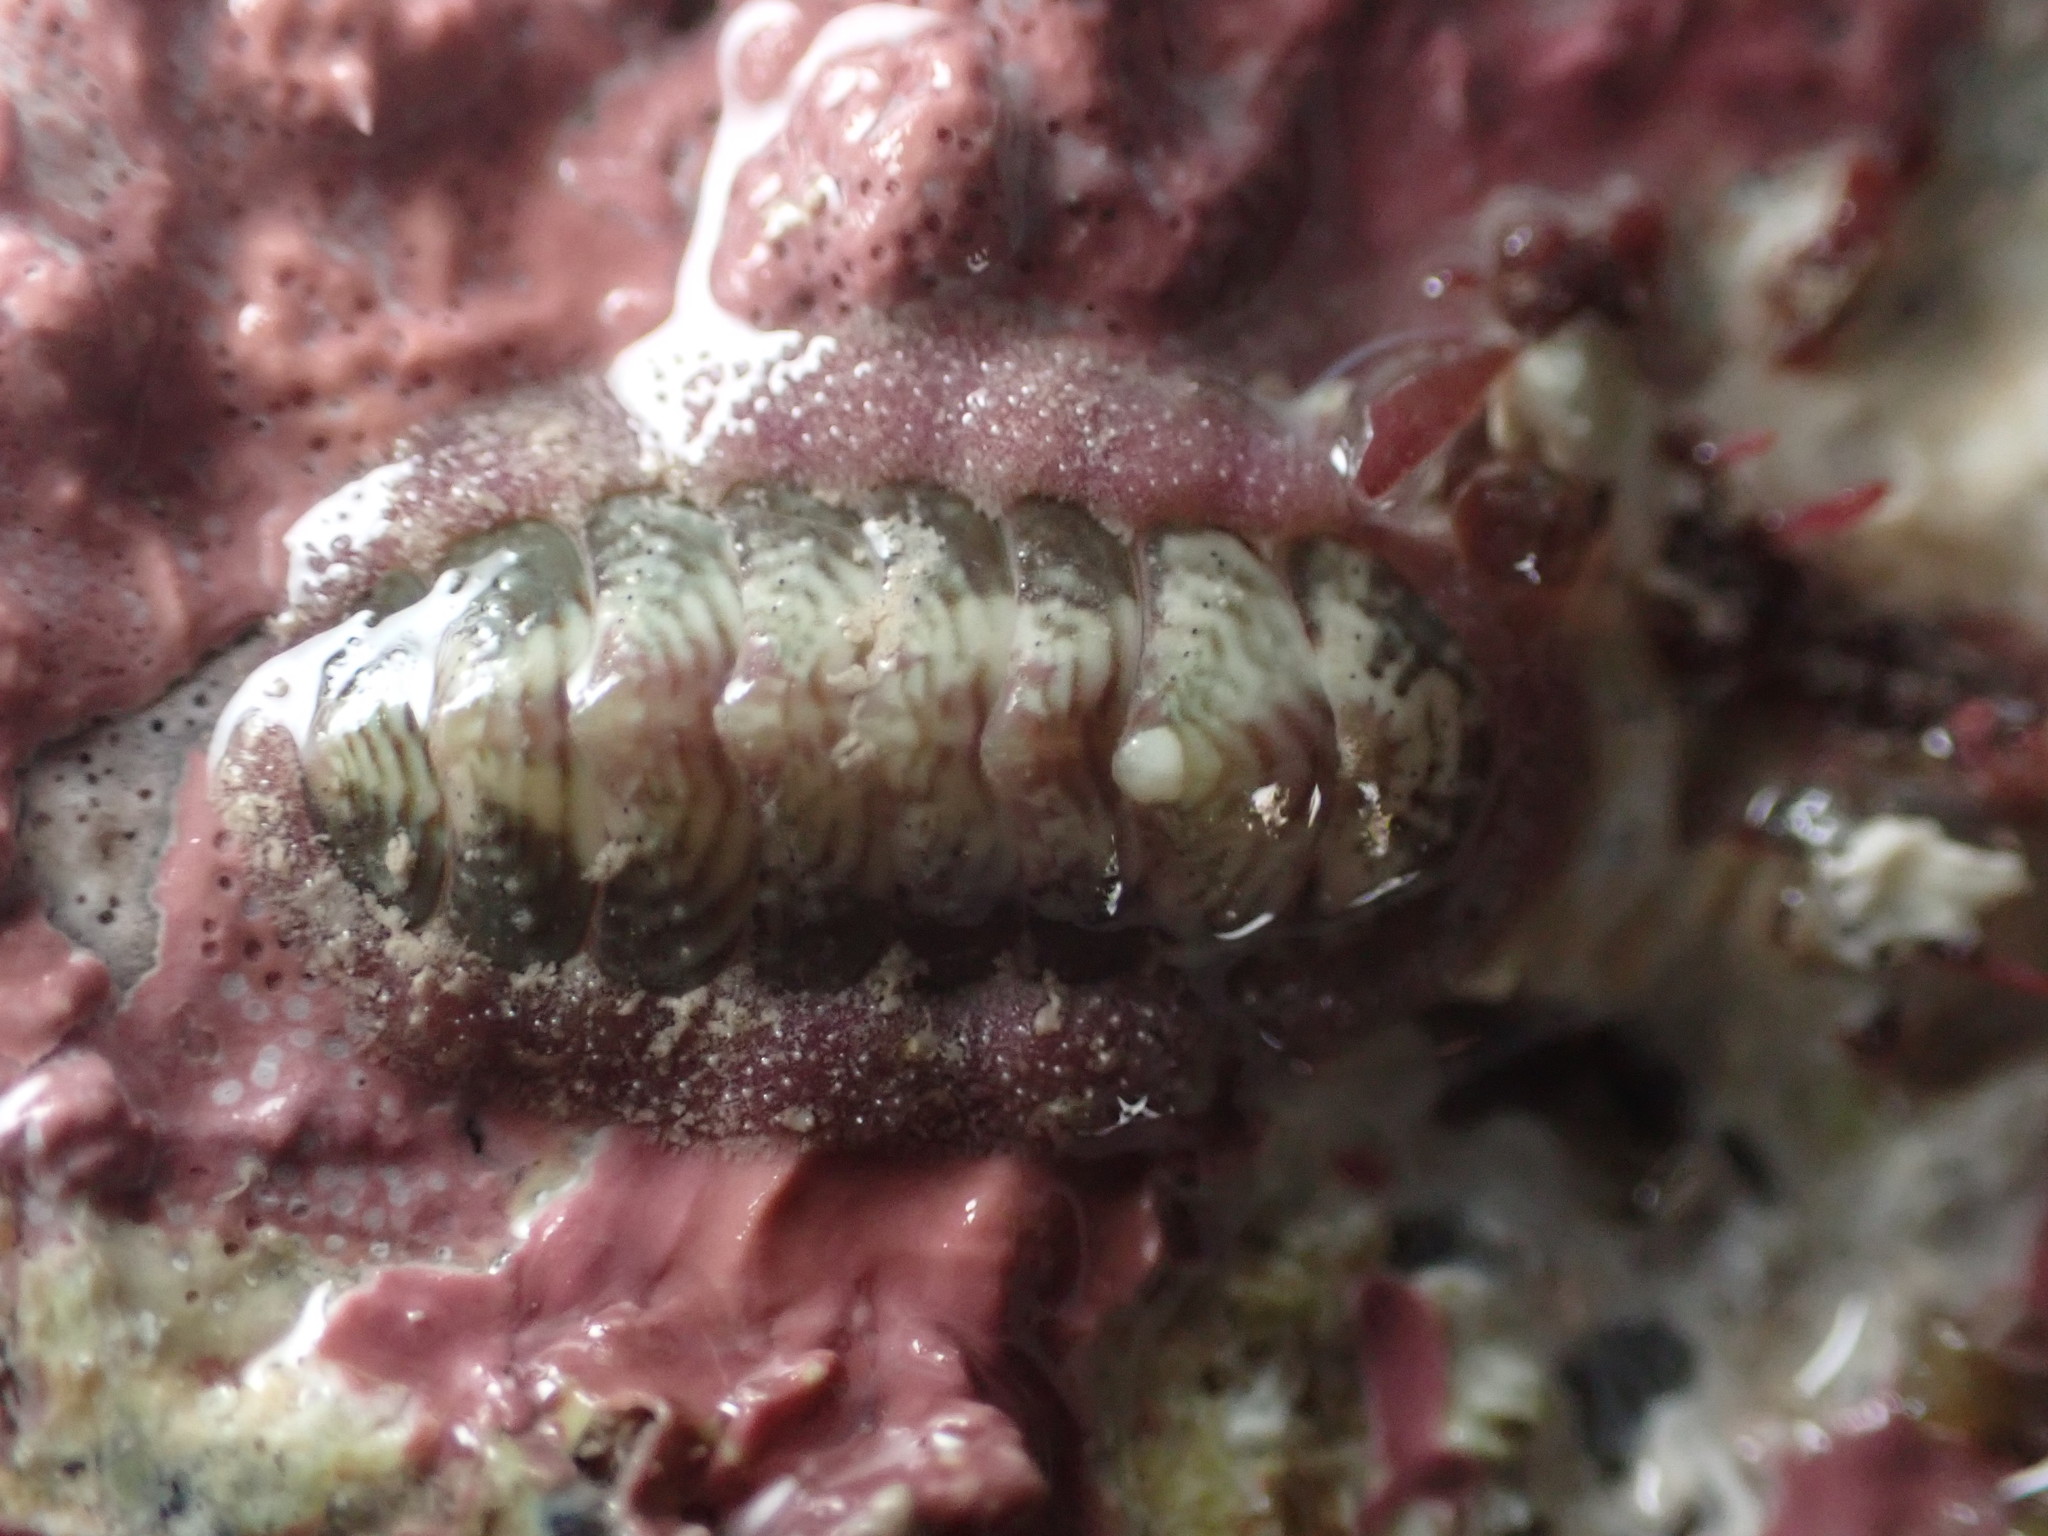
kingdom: Animalia
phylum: Mollusca
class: Polyplacophora
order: Chitonida
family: Chitonidae
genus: Onithochiton
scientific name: Onithochiton neglectus
